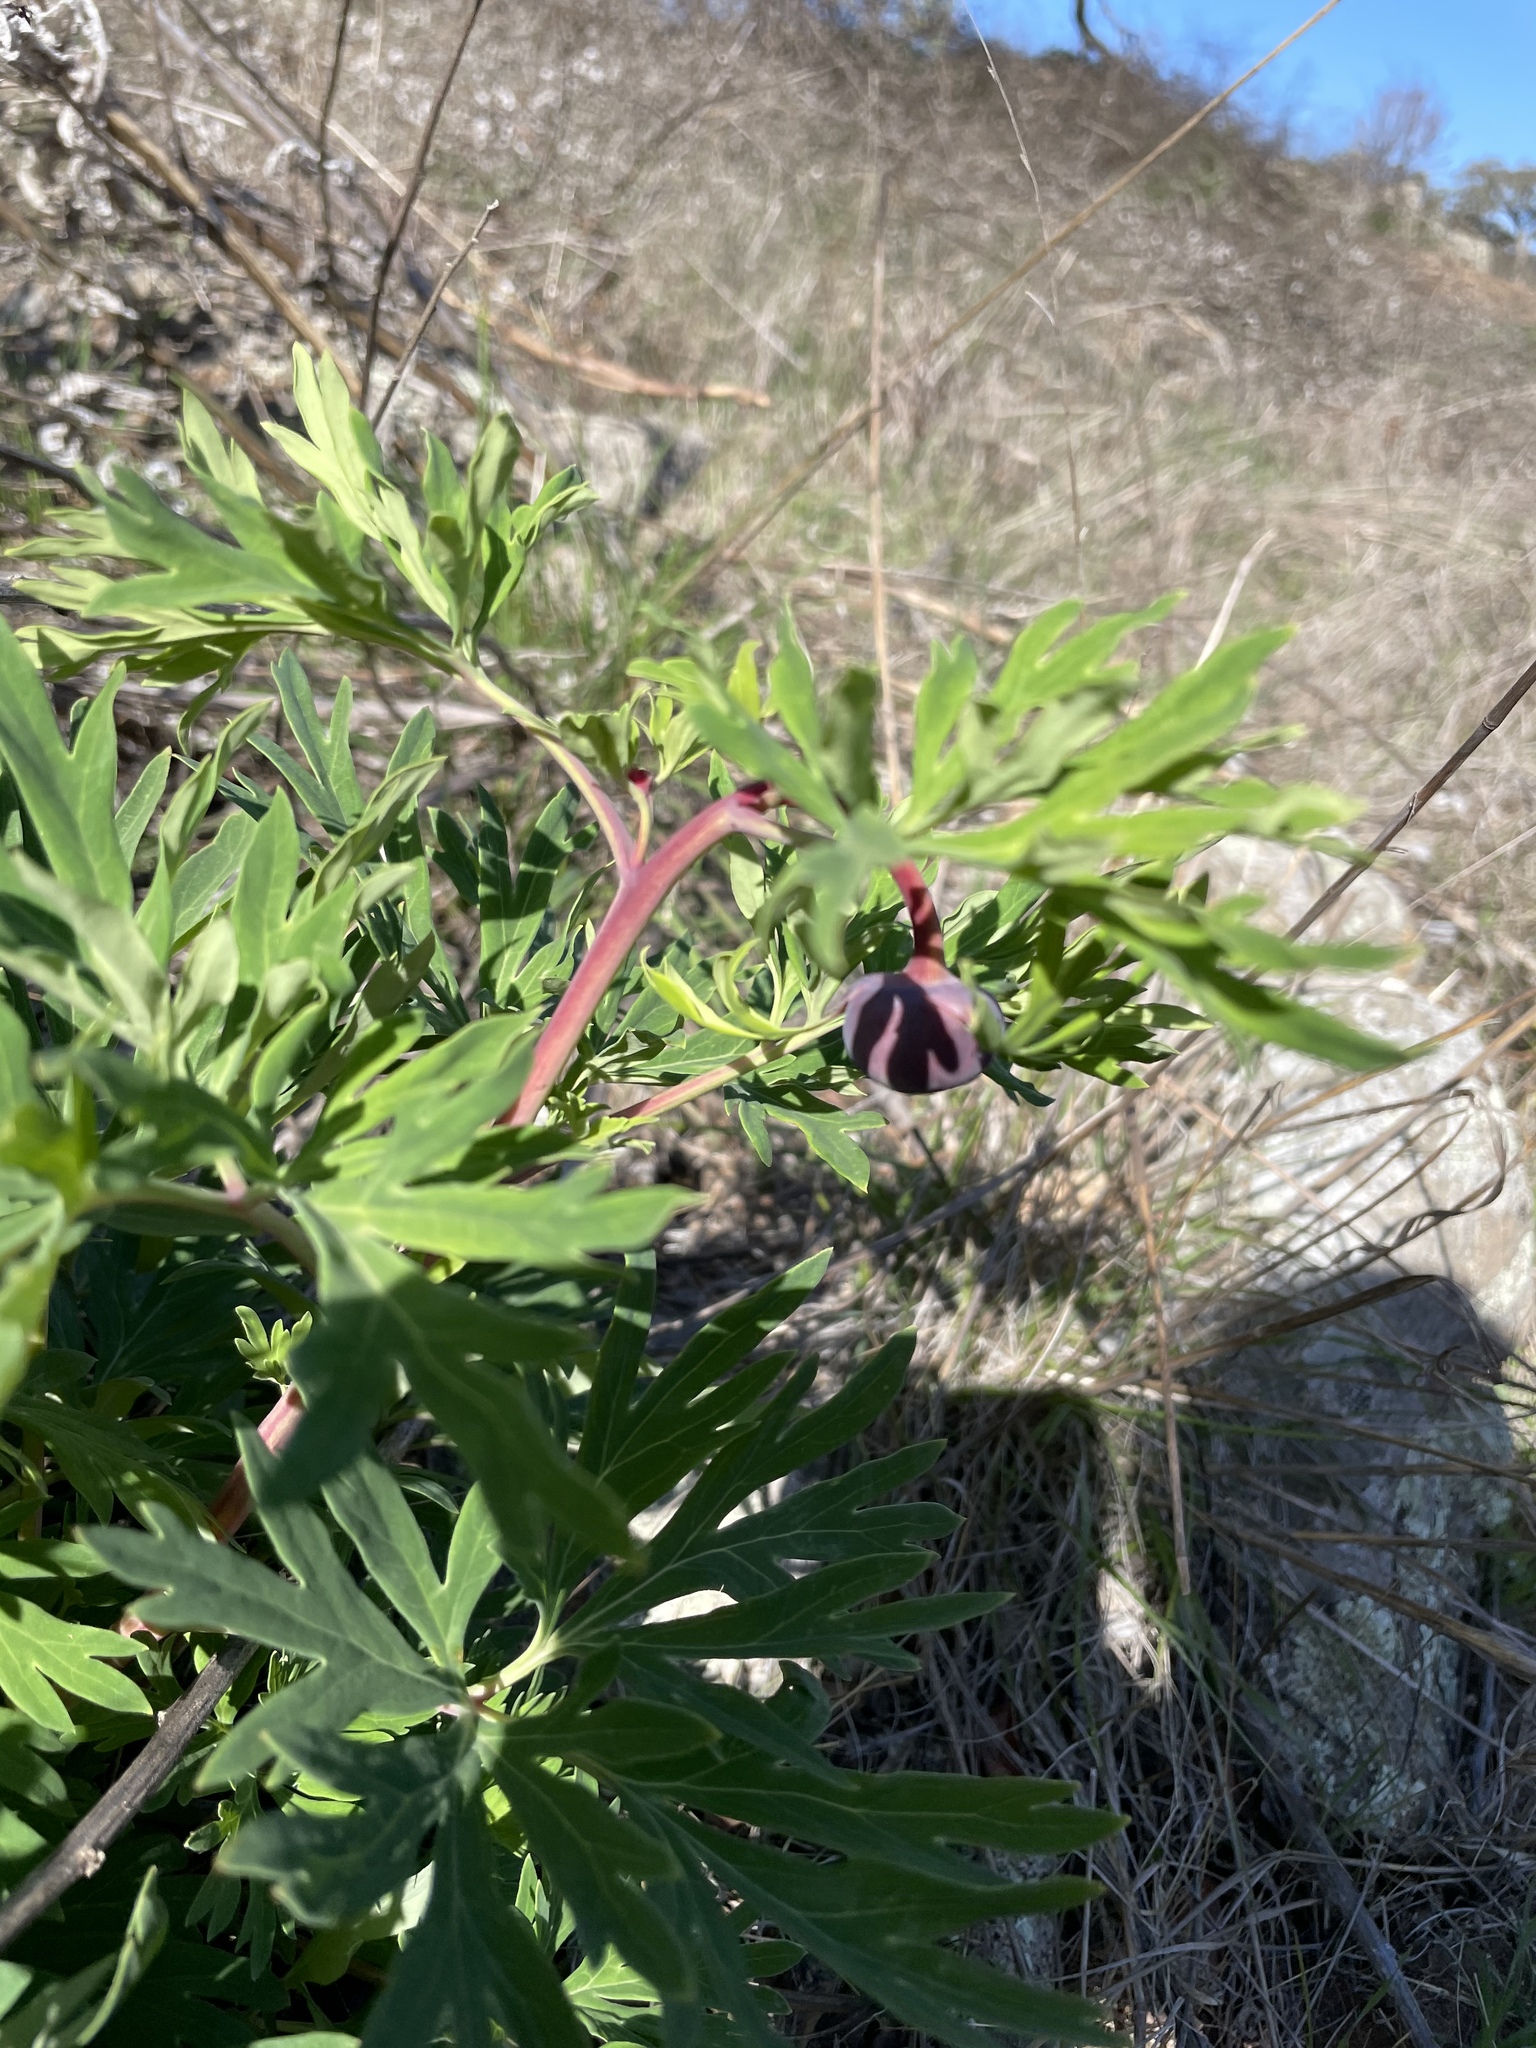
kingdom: Plantae
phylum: Tracheophyta
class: Magnoliopsida
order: Saxifragales
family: Paeoniaceae
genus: Paeonia
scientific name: Paeonia californica
